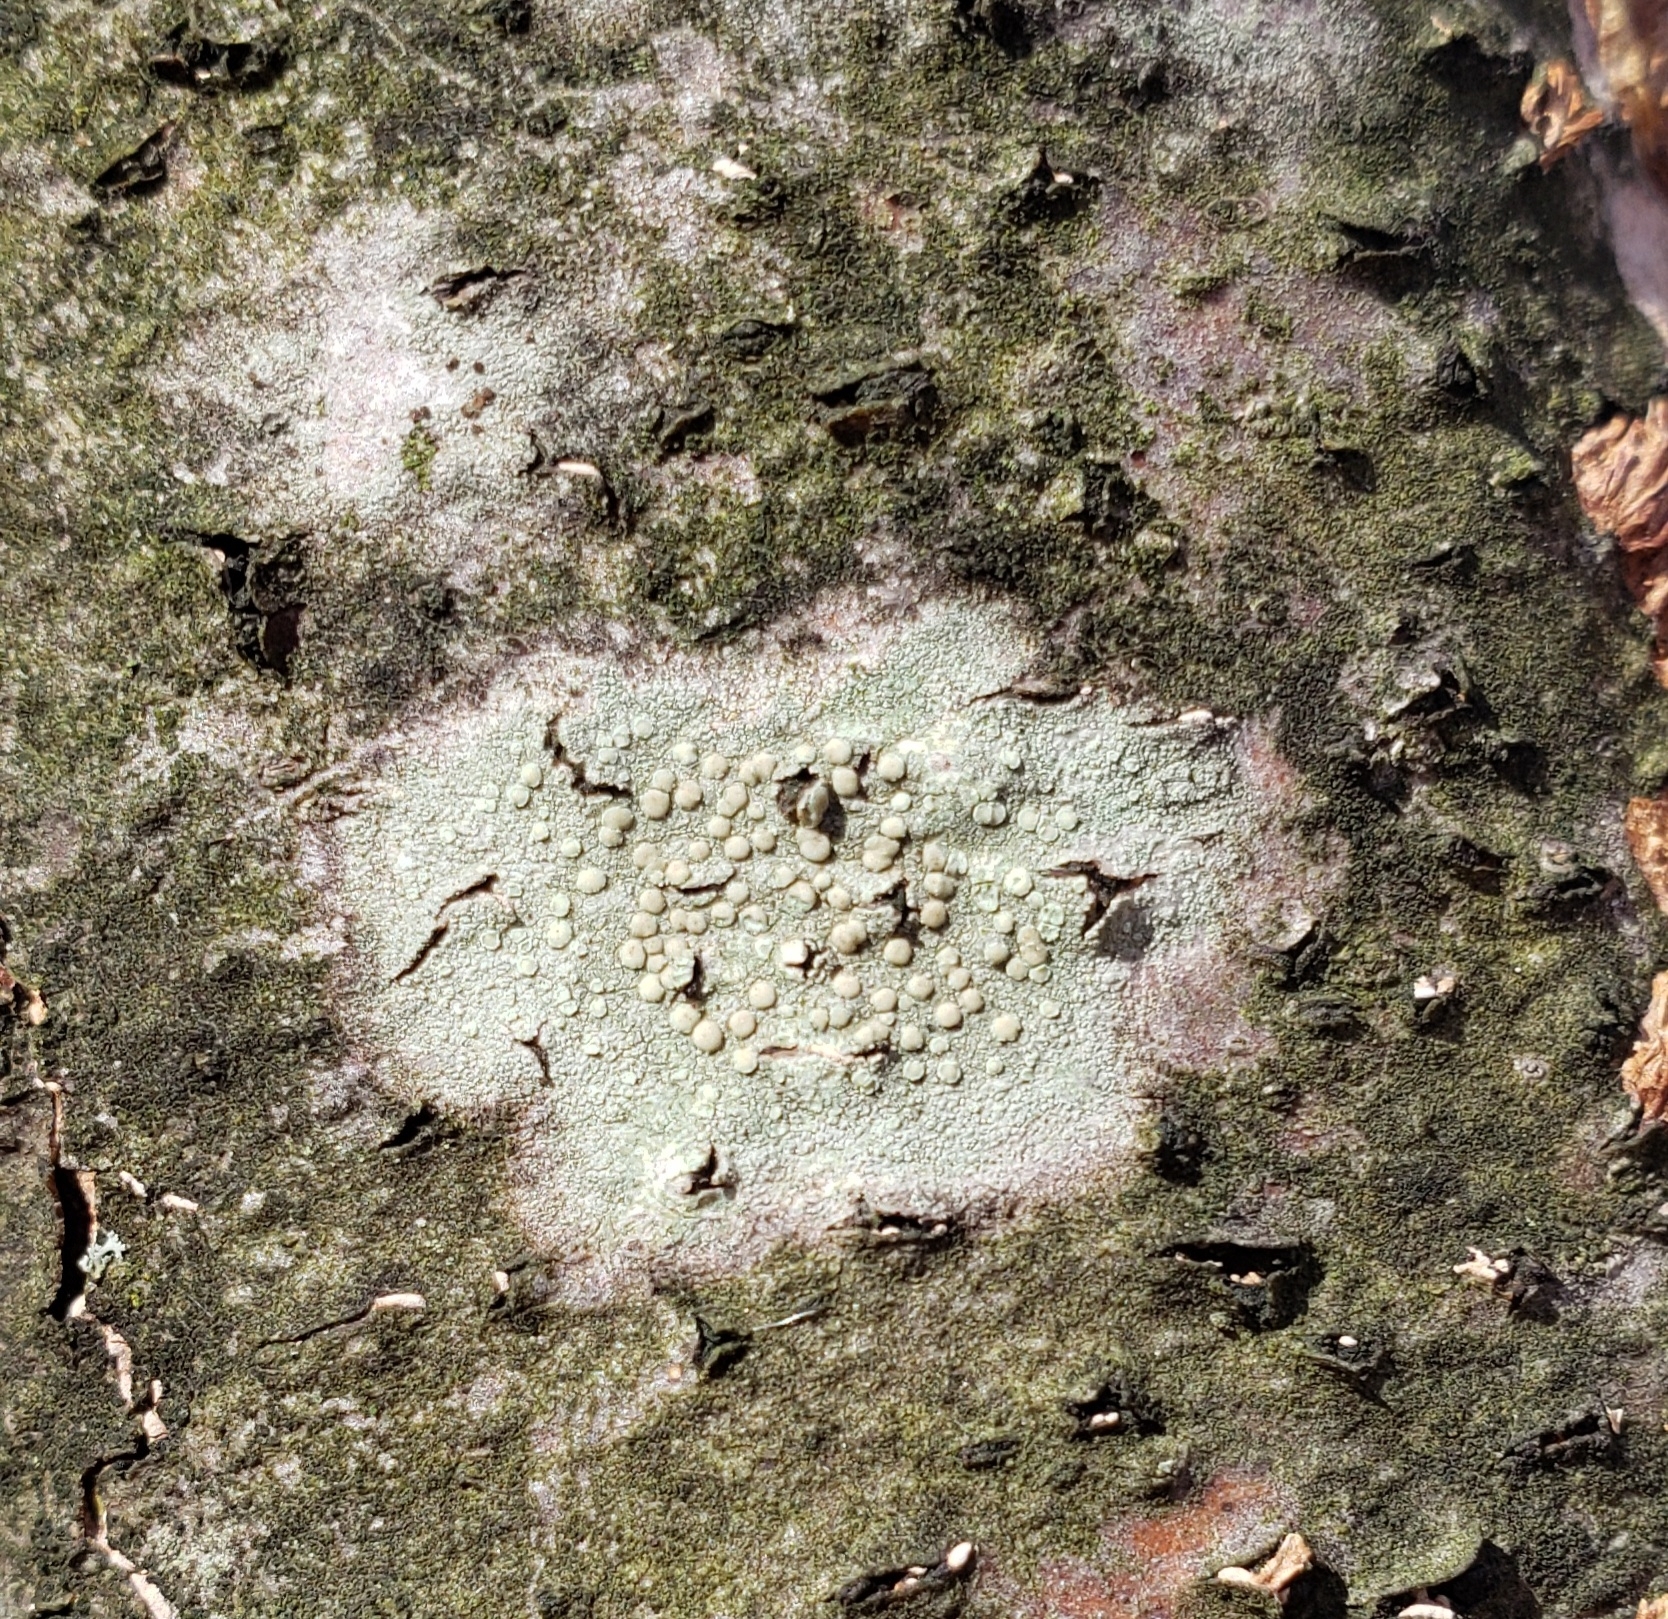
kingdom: Fungi
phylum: Ascomycota
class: Lecanoromycetes
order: Lecanorales
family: Lecanoraceae
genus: Lecanora
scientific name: Lecanora strobilina
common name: Mealy rim-lichen
